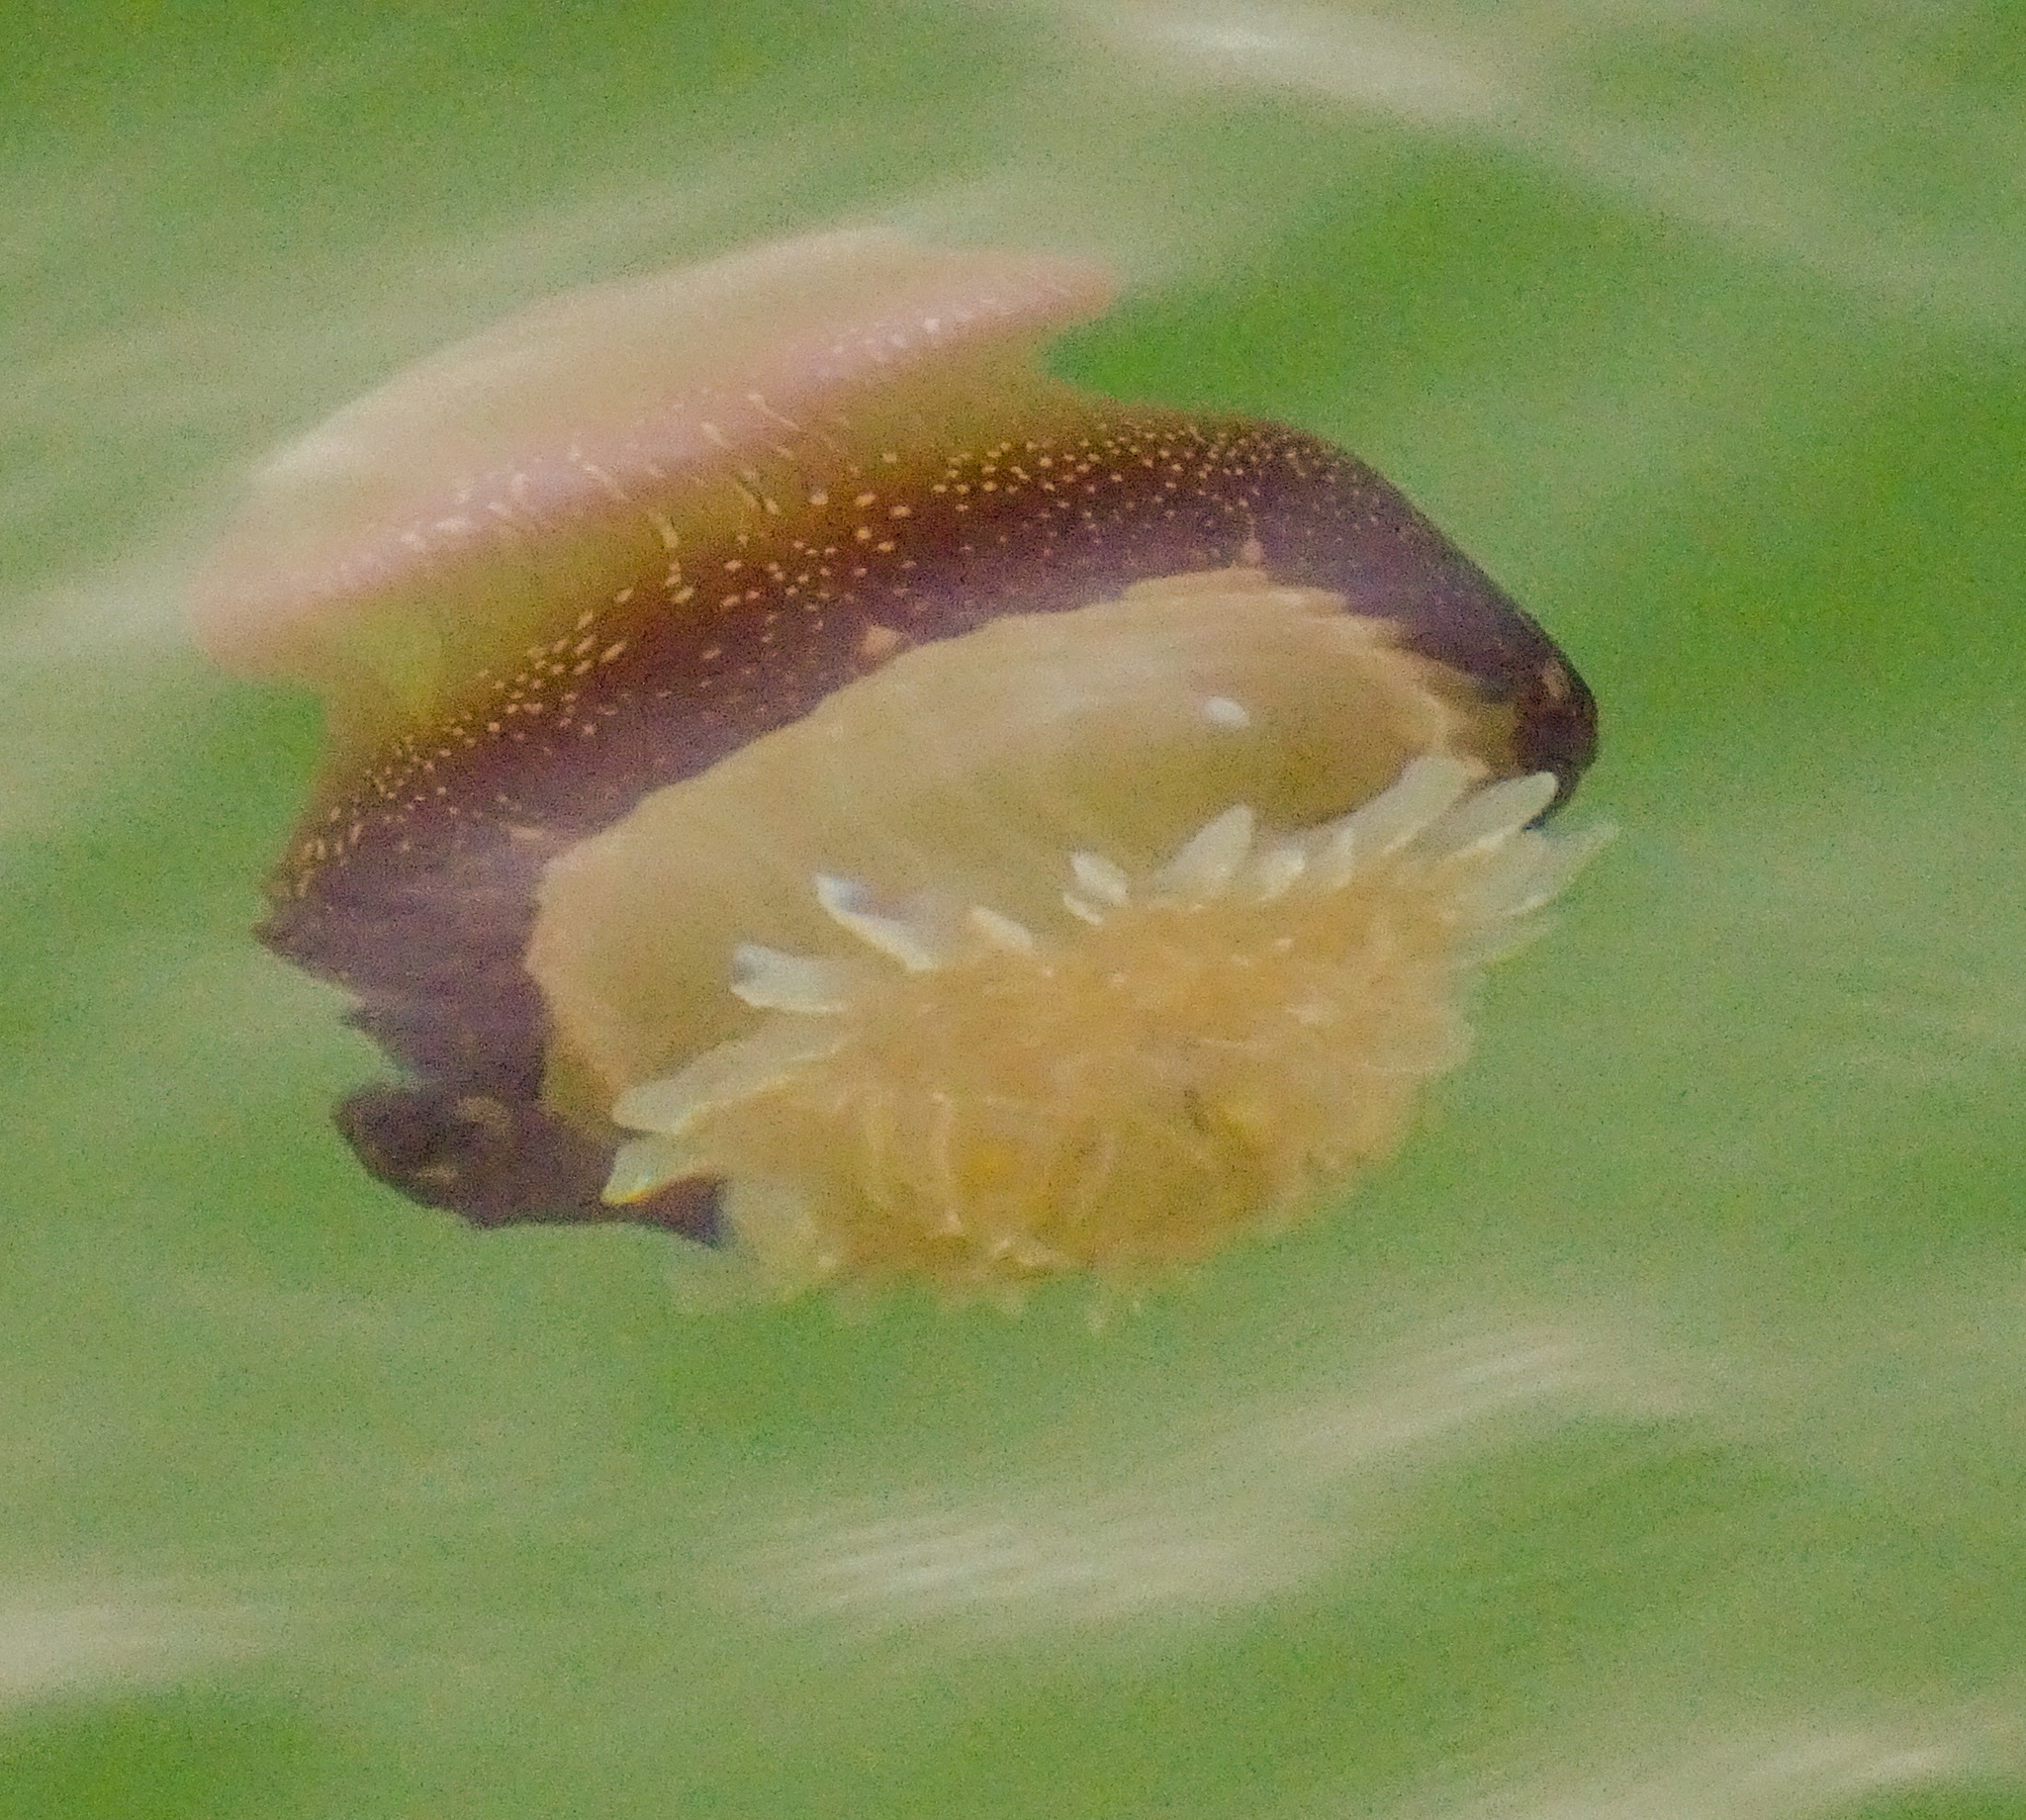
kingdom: Animalia
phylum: Cnidaria
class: Scyphozoa
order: Rhizostomeae
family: Stomolophidae
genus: Stomolophus
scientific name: Stomolophus meleagris
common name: Cabbagehead
